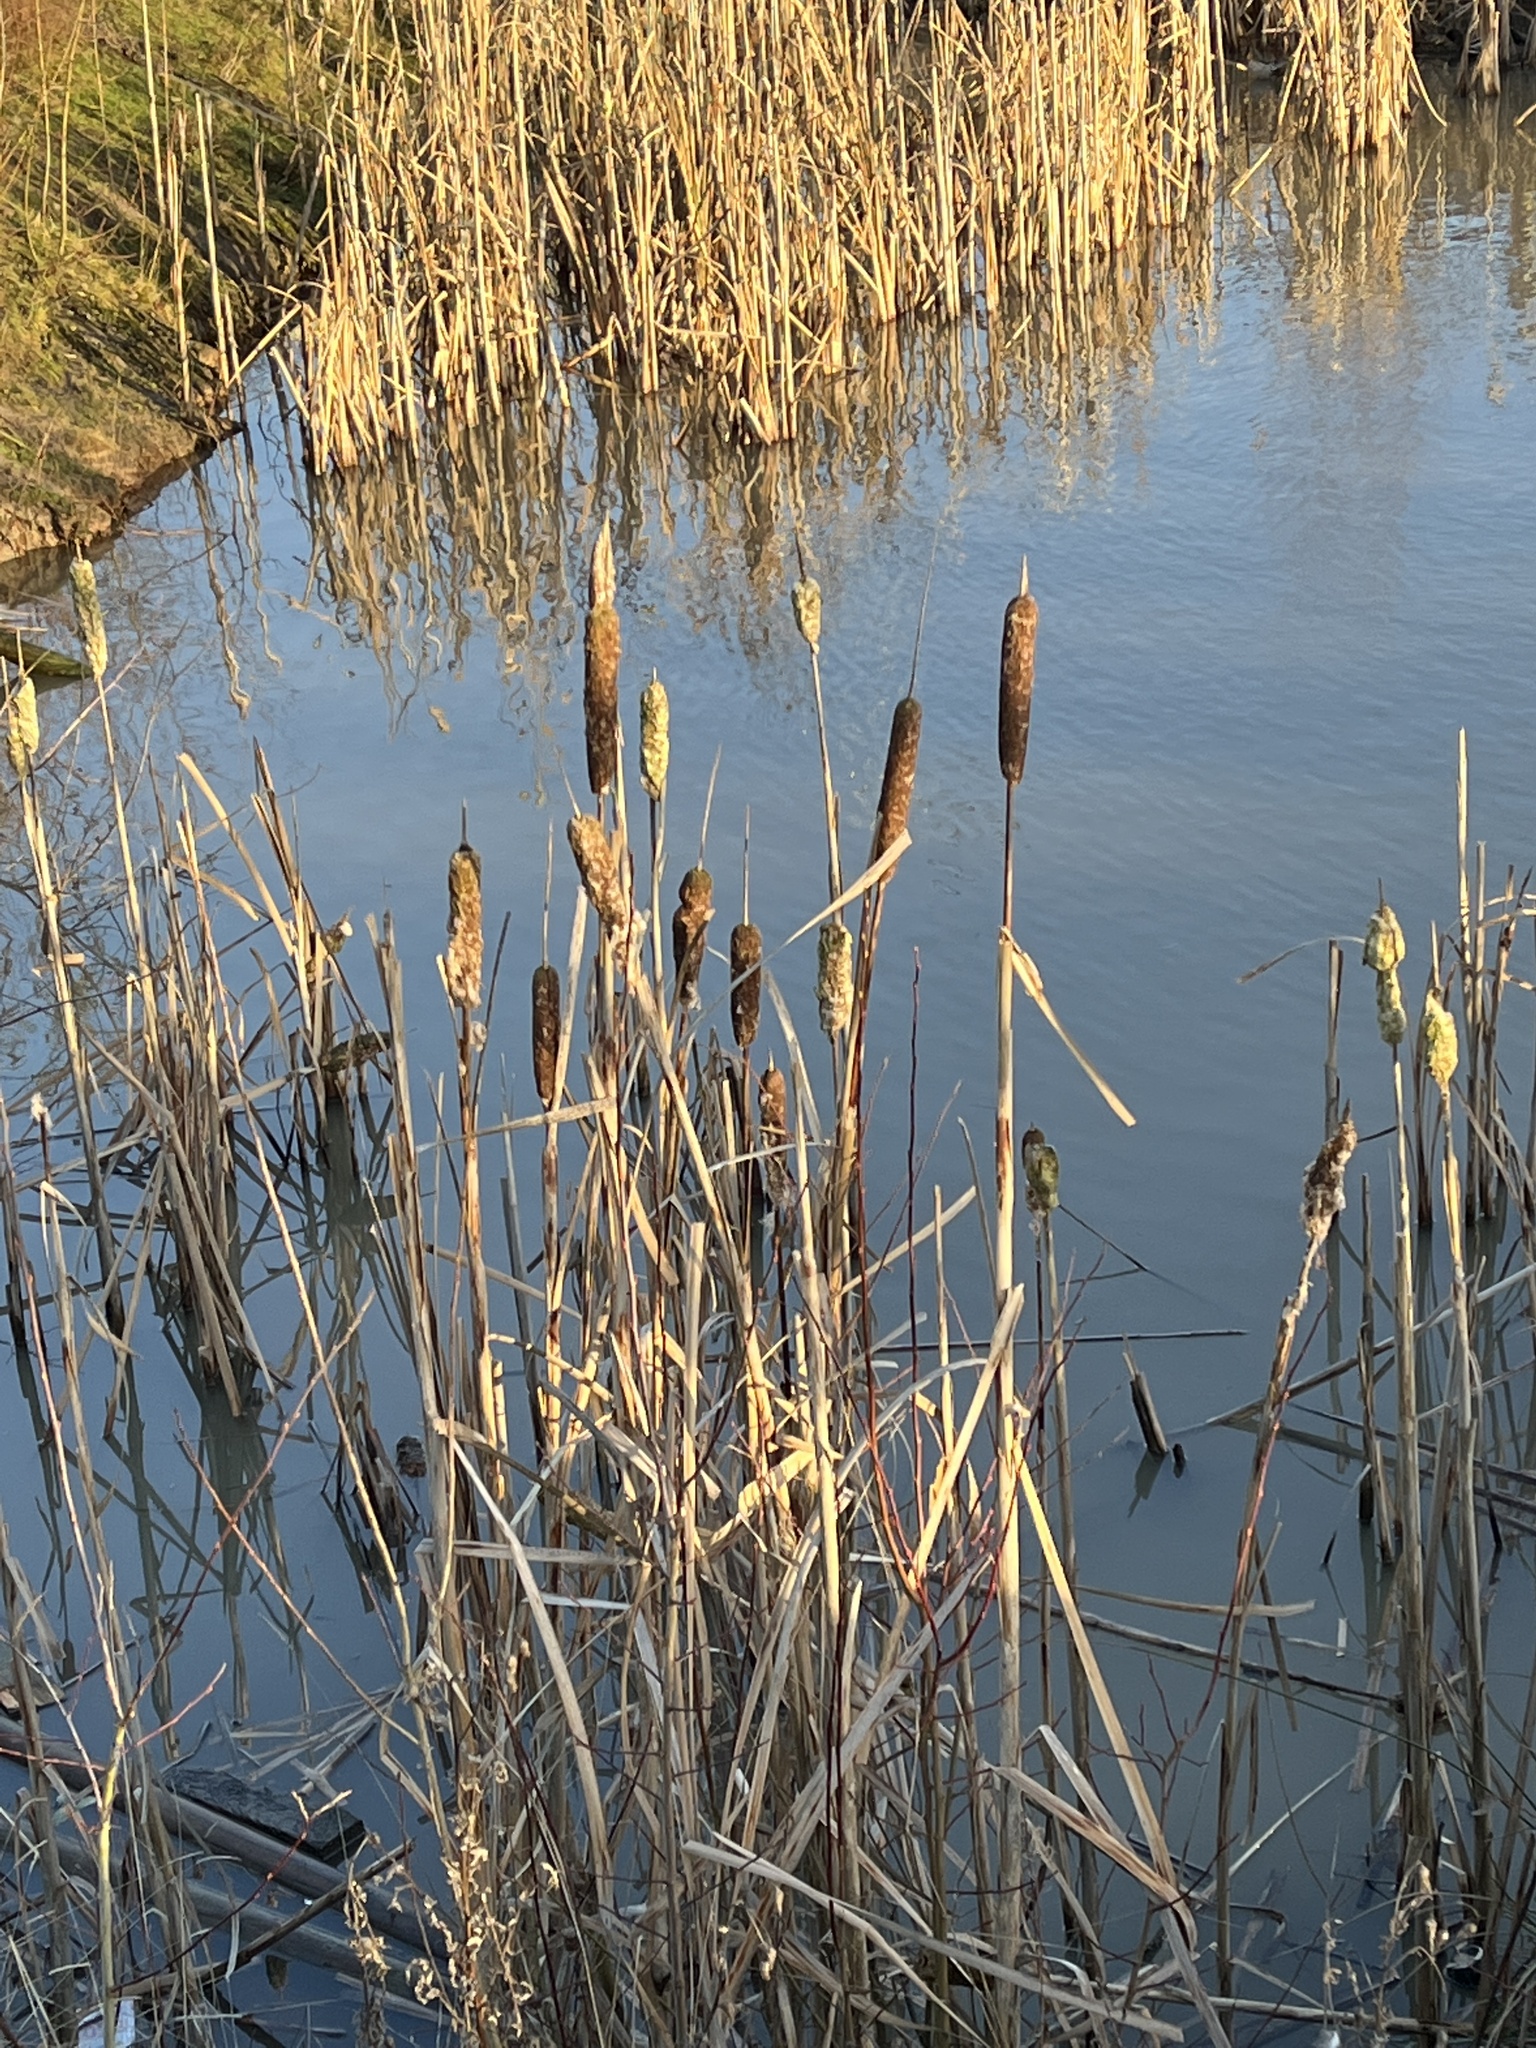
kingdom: Plantae
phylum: Tracheophyta
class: Liliopsida
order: Poales
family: Typhaceae
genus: Typha
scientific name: Typha latifolia
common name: Broadleaf cattail
